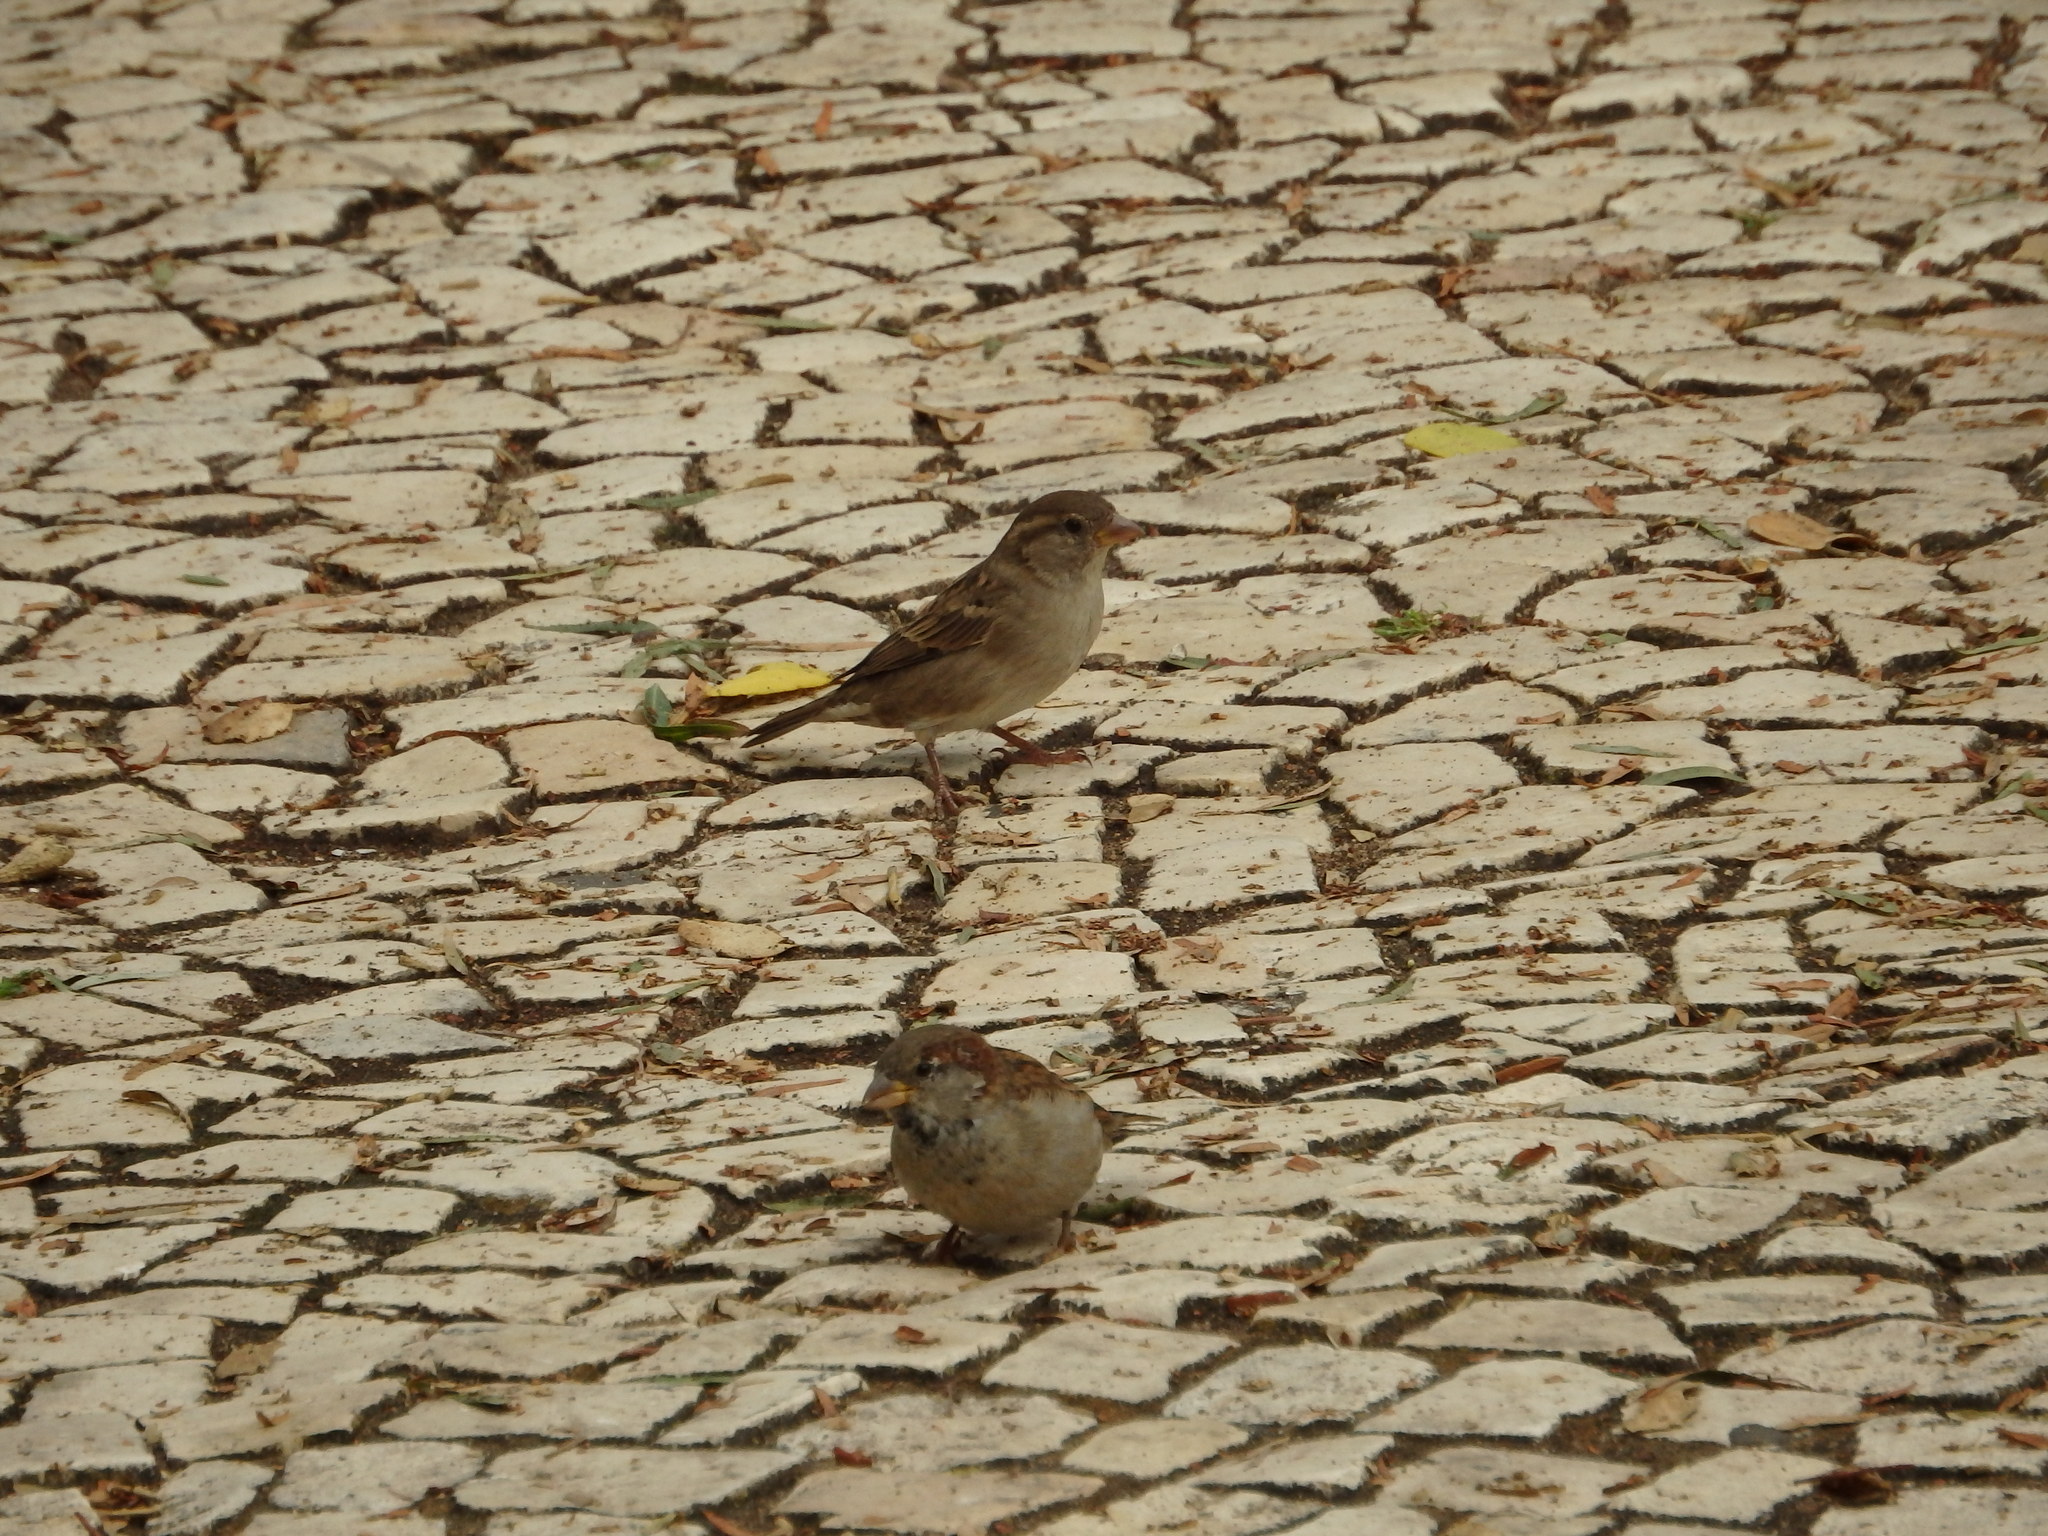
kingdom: Animalia
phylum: Chordata
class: Aves
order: Passeriformes
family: Passeridae
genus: Passer
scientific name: Passer domesticus
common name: House sparrow
